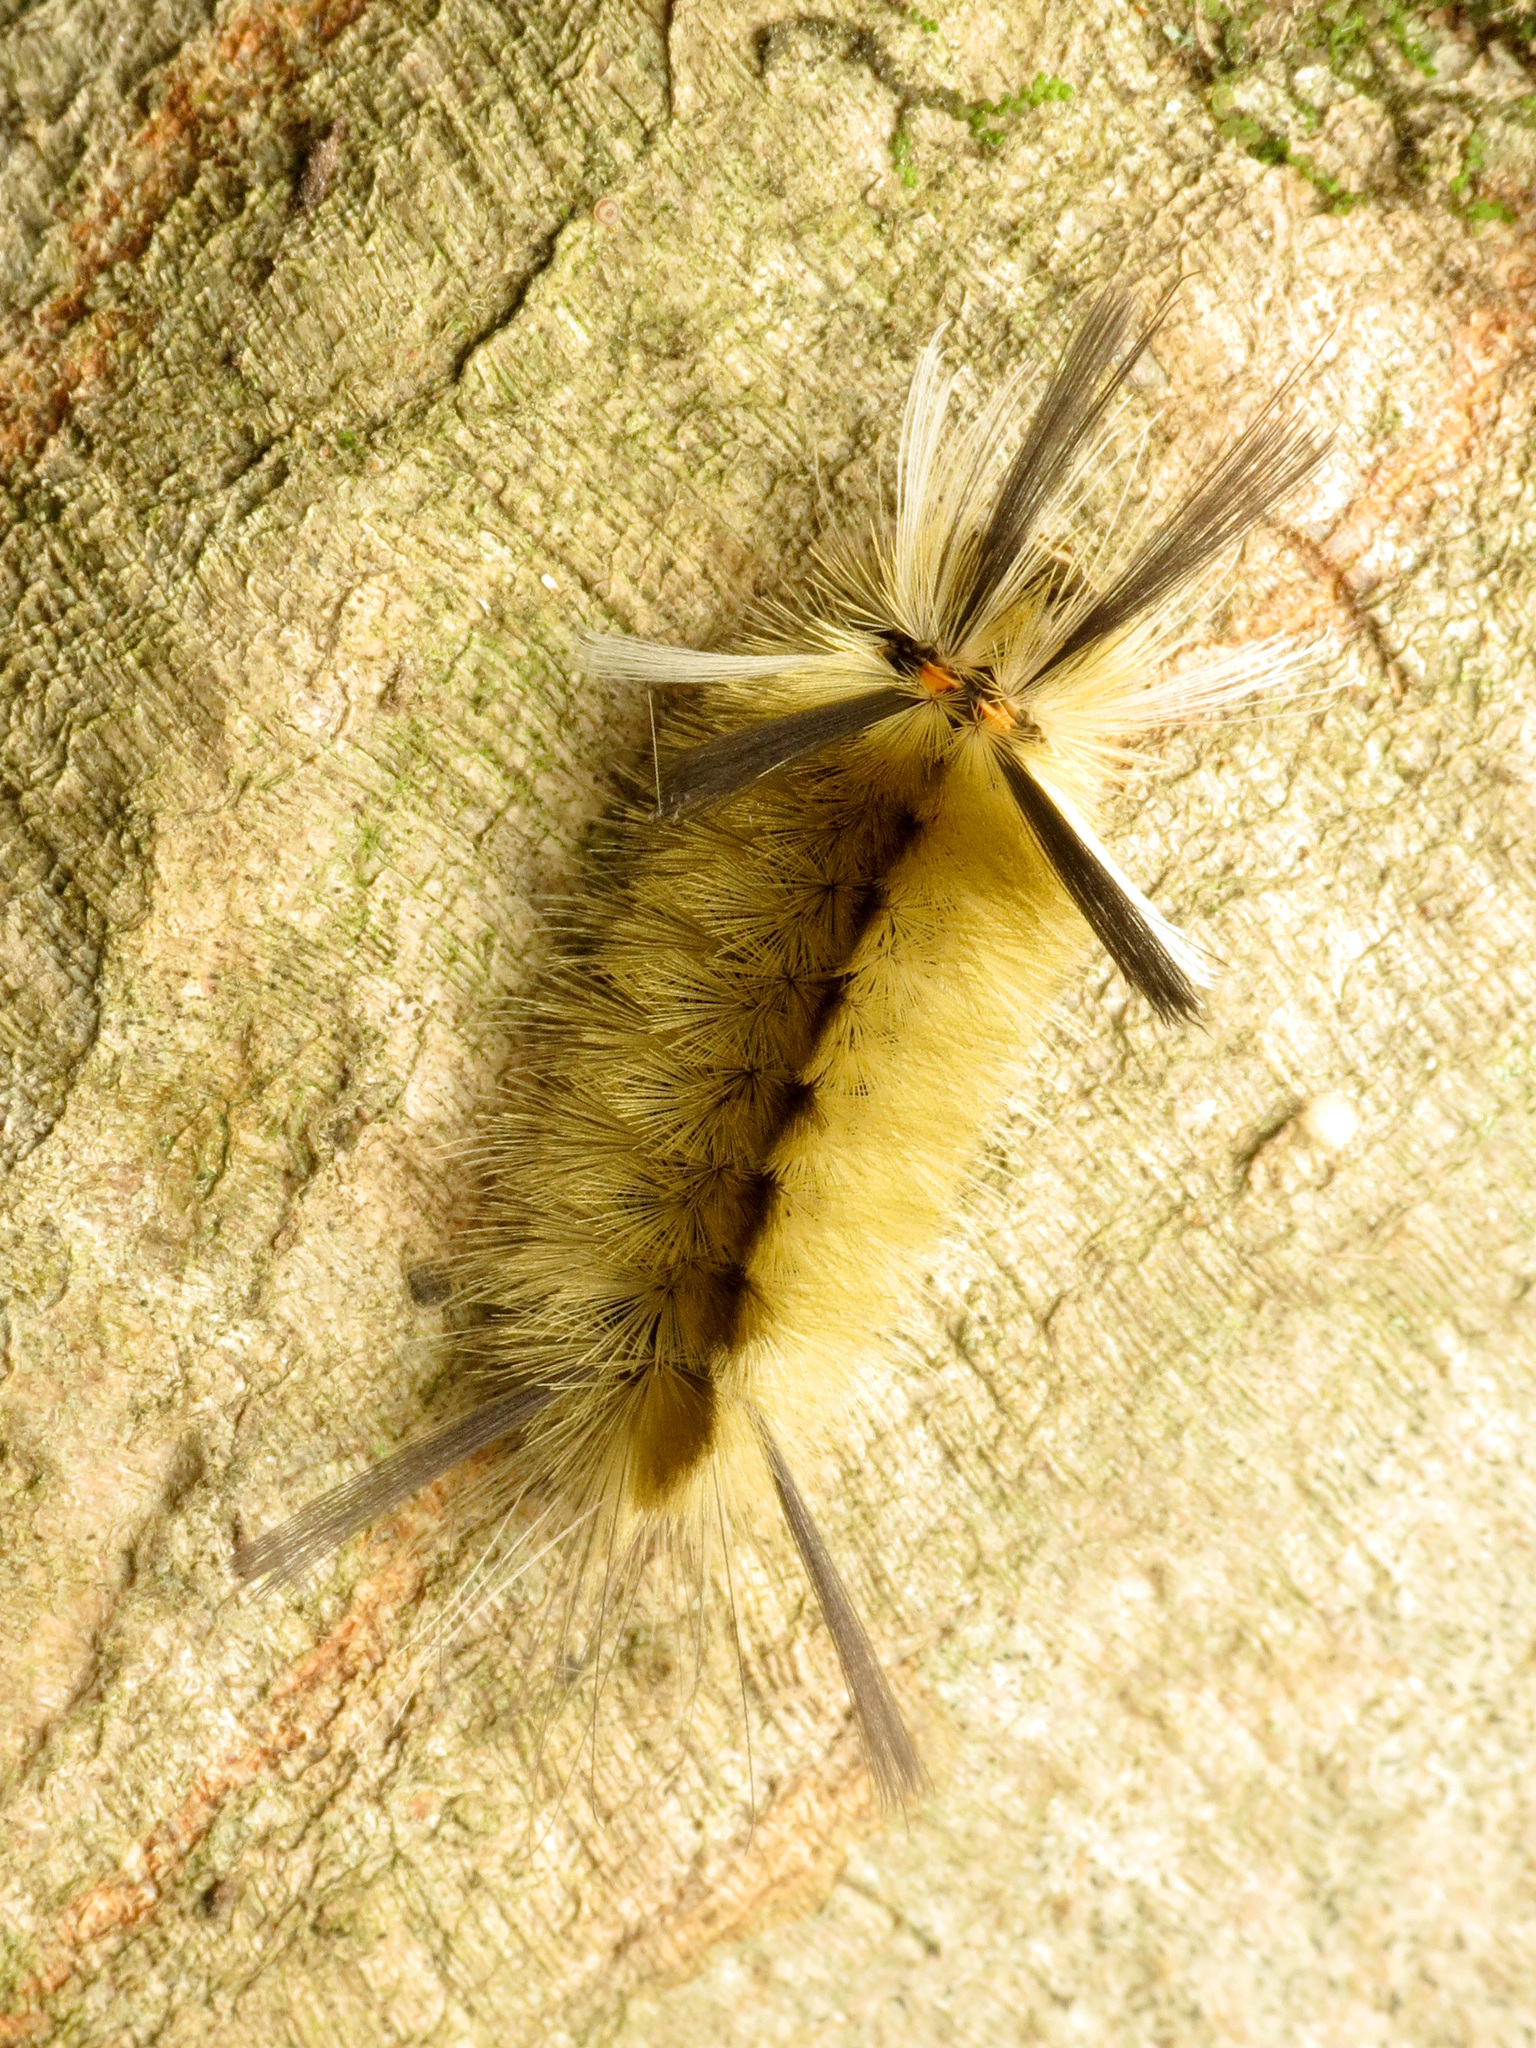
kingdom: Animalia
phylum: Arthropoda
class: Insecta
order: Lepidoptera
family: Erebidae
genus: Halysidota
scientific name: Halysidota tessellaris
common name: Banded tussock moth
